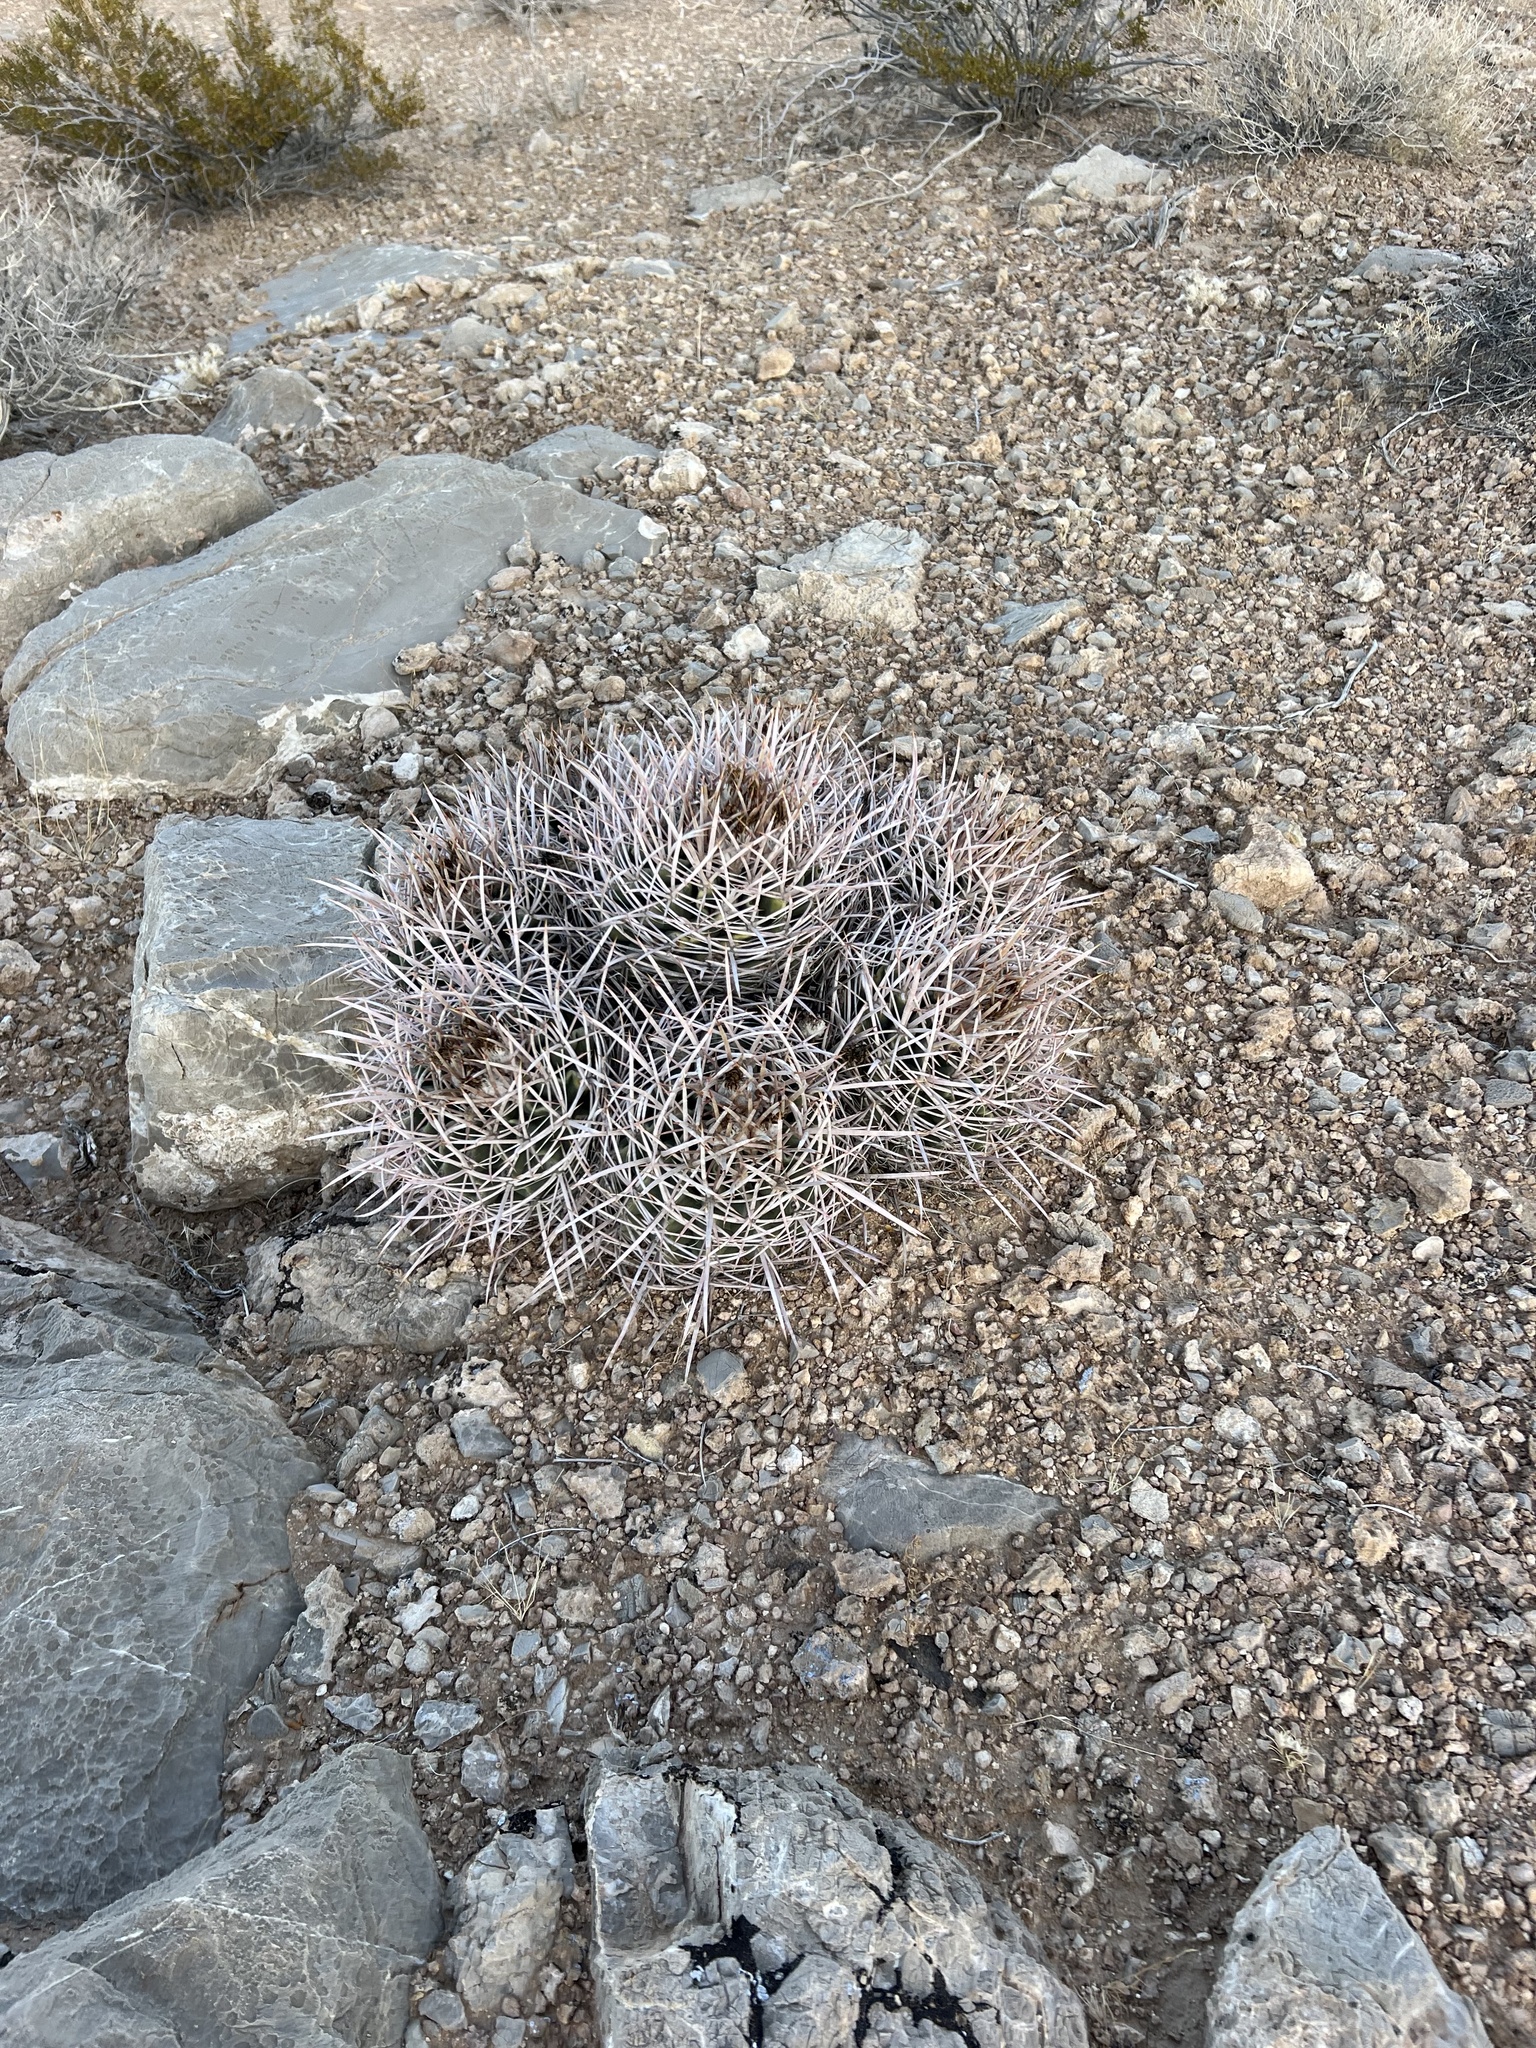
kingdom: Plantae
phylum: Tracheophyta
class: Magnoliopsida
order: Caryophyllales
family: Cactaceae
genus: Echinocactus
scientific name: Echinocactus polycephalus
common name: Cottontop cactus
